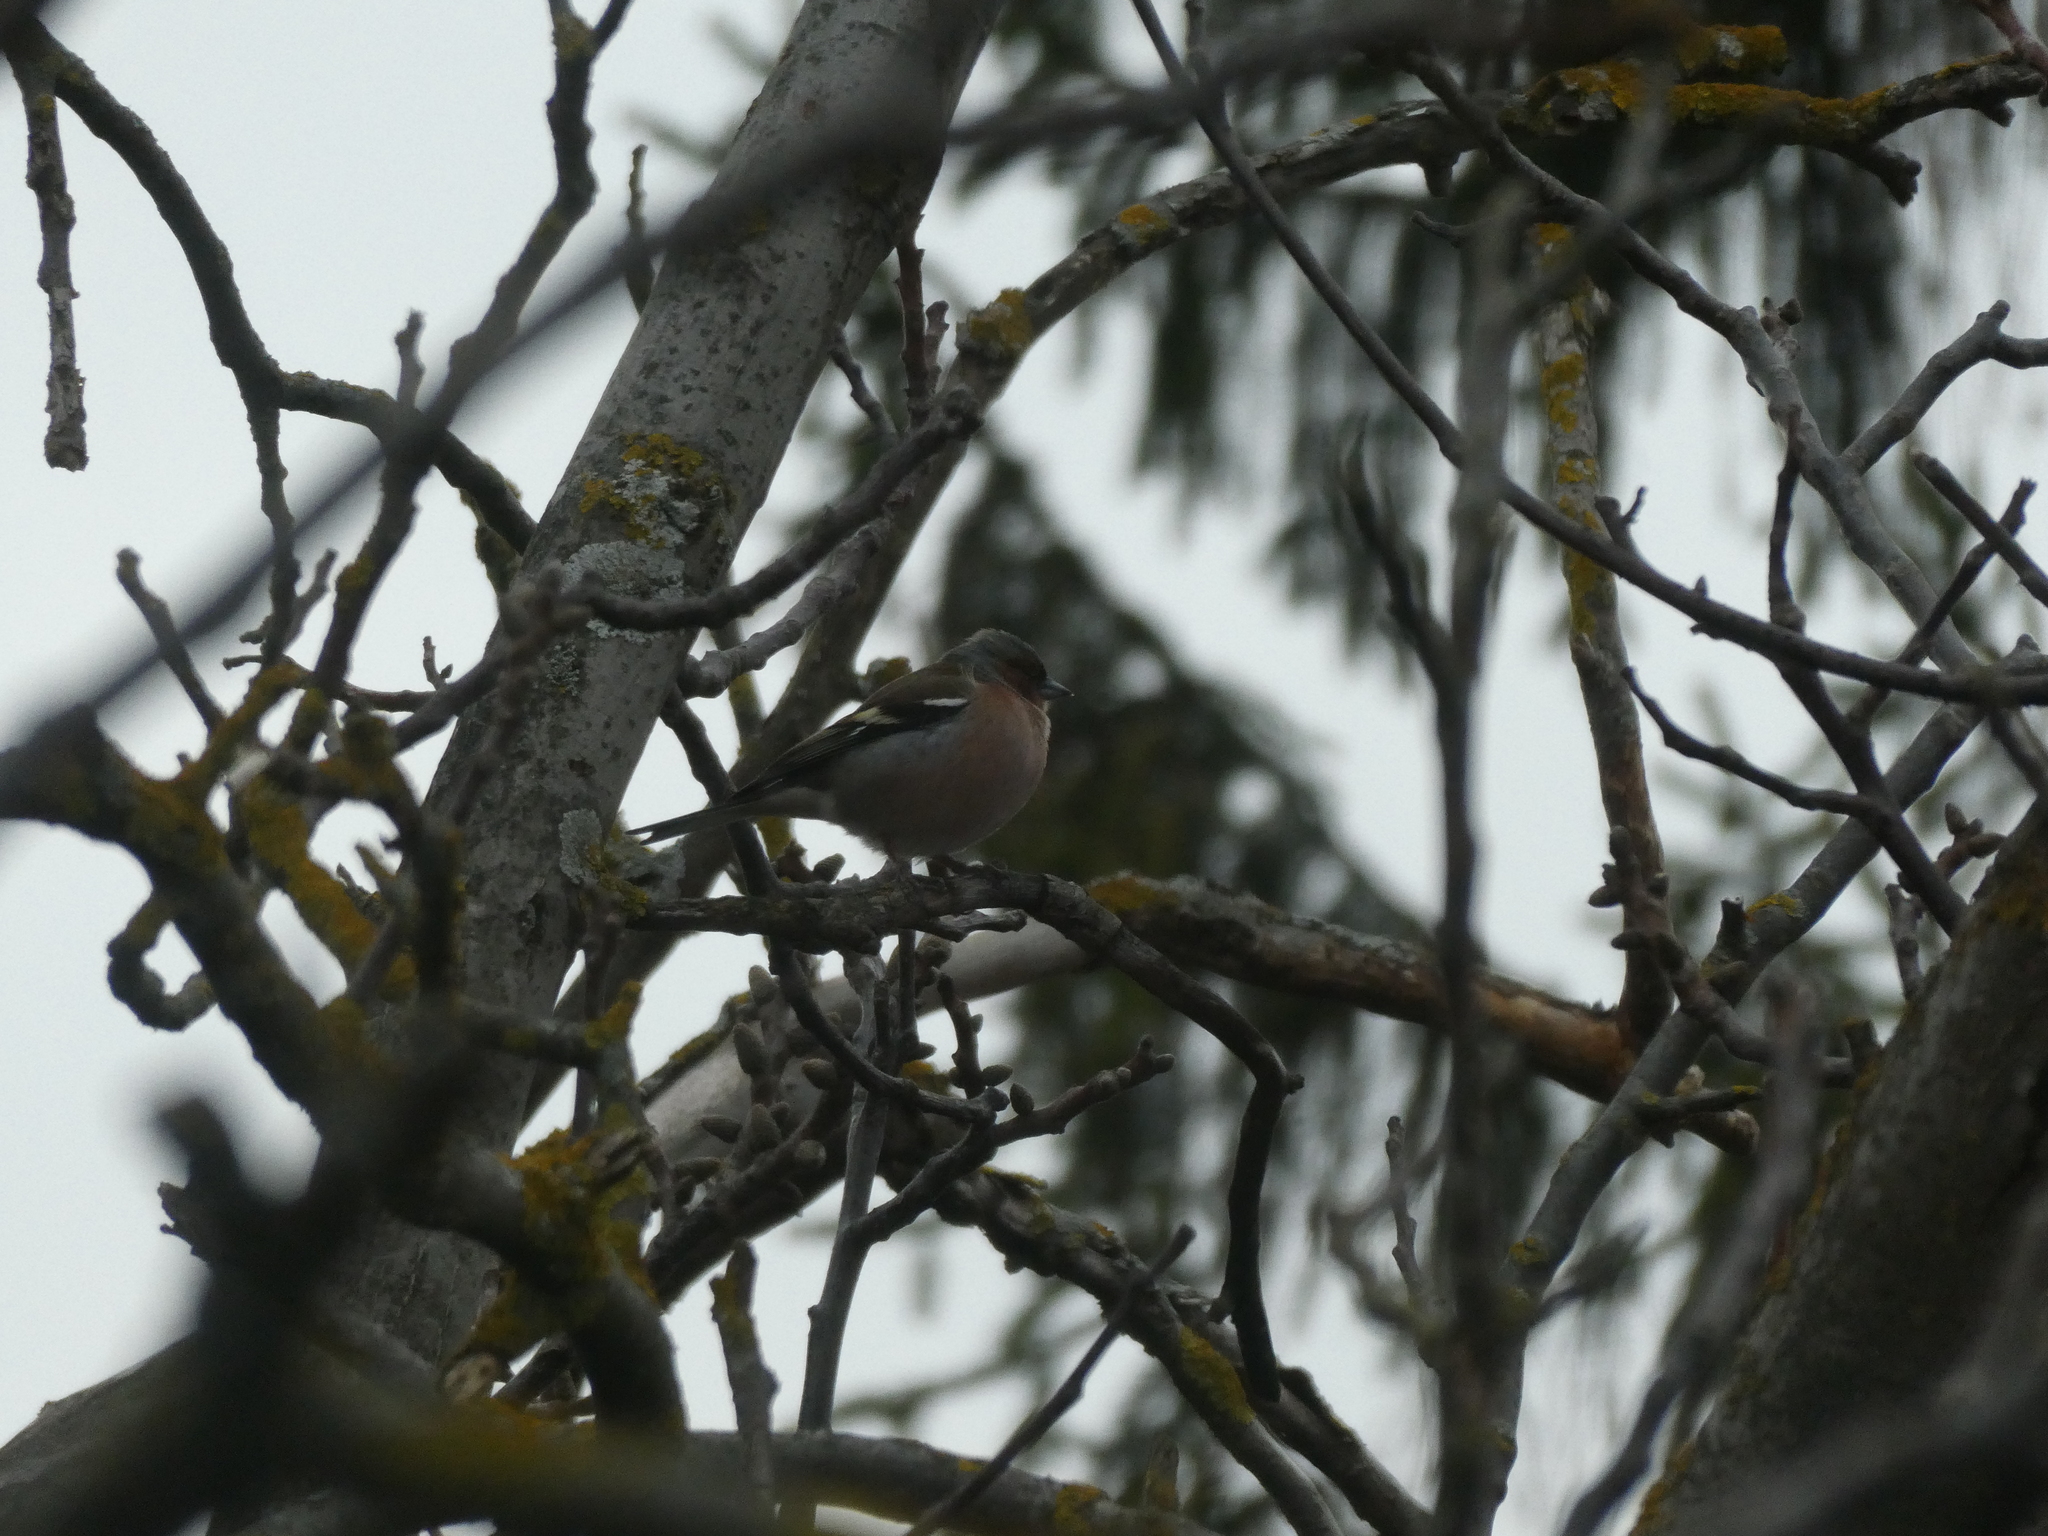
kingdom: Animalia
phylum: Chordata
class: Aves
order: Passeriformes
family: Fringillidae
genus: Fringilla
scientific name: Fringilla coelebs
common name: Common chaffinch
